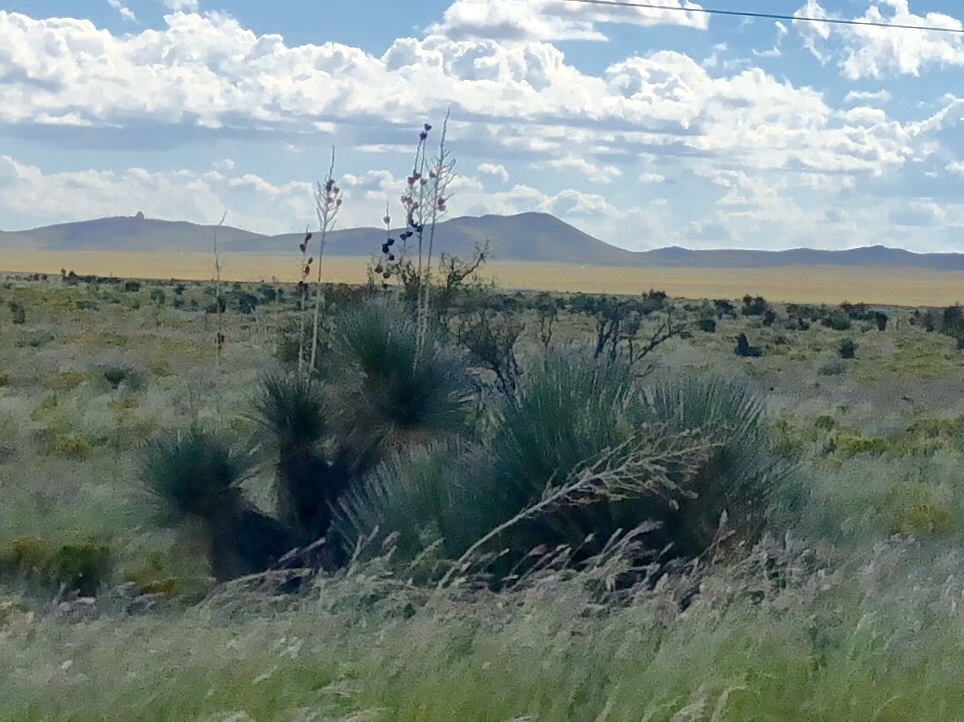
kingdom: Plantae
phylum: Tracheophyta
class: Liliopsida
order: Asparagales
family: Asparagaceae
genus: Yucca
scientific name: Yucca elata
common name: Palmella
